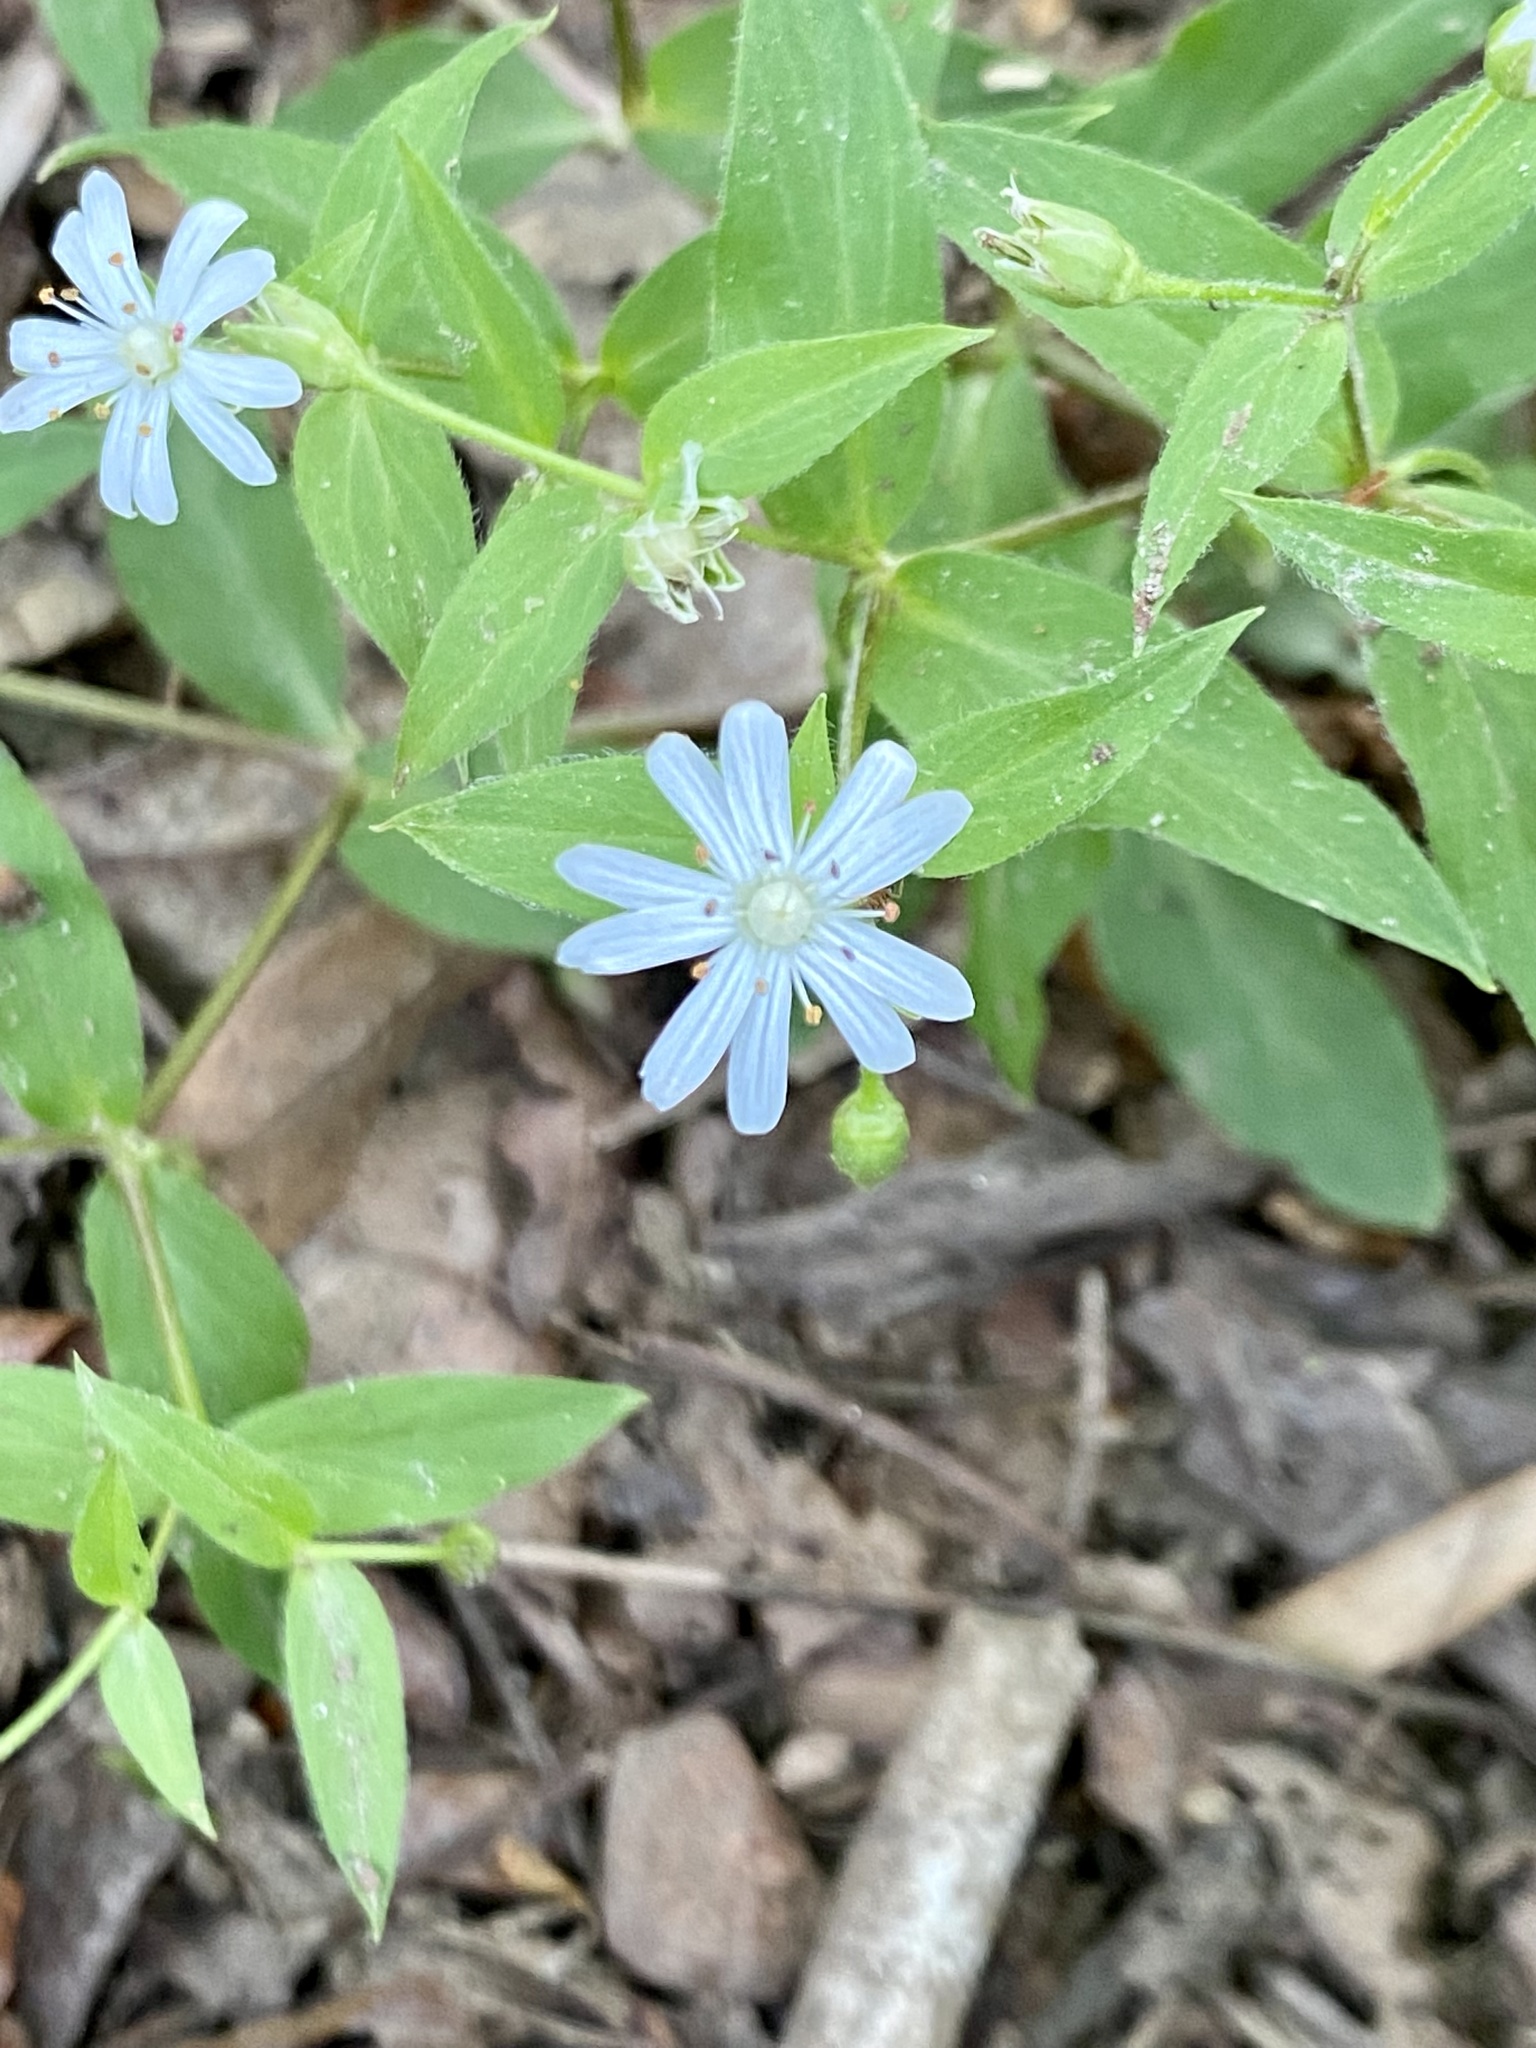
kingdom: Plantae
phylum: Tracheophyta
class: Magnoliopsida
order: Caryophyllales
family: Caryophyllaceae
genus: Stellaria
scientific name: Stellaria pubera
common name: Star chickweed
